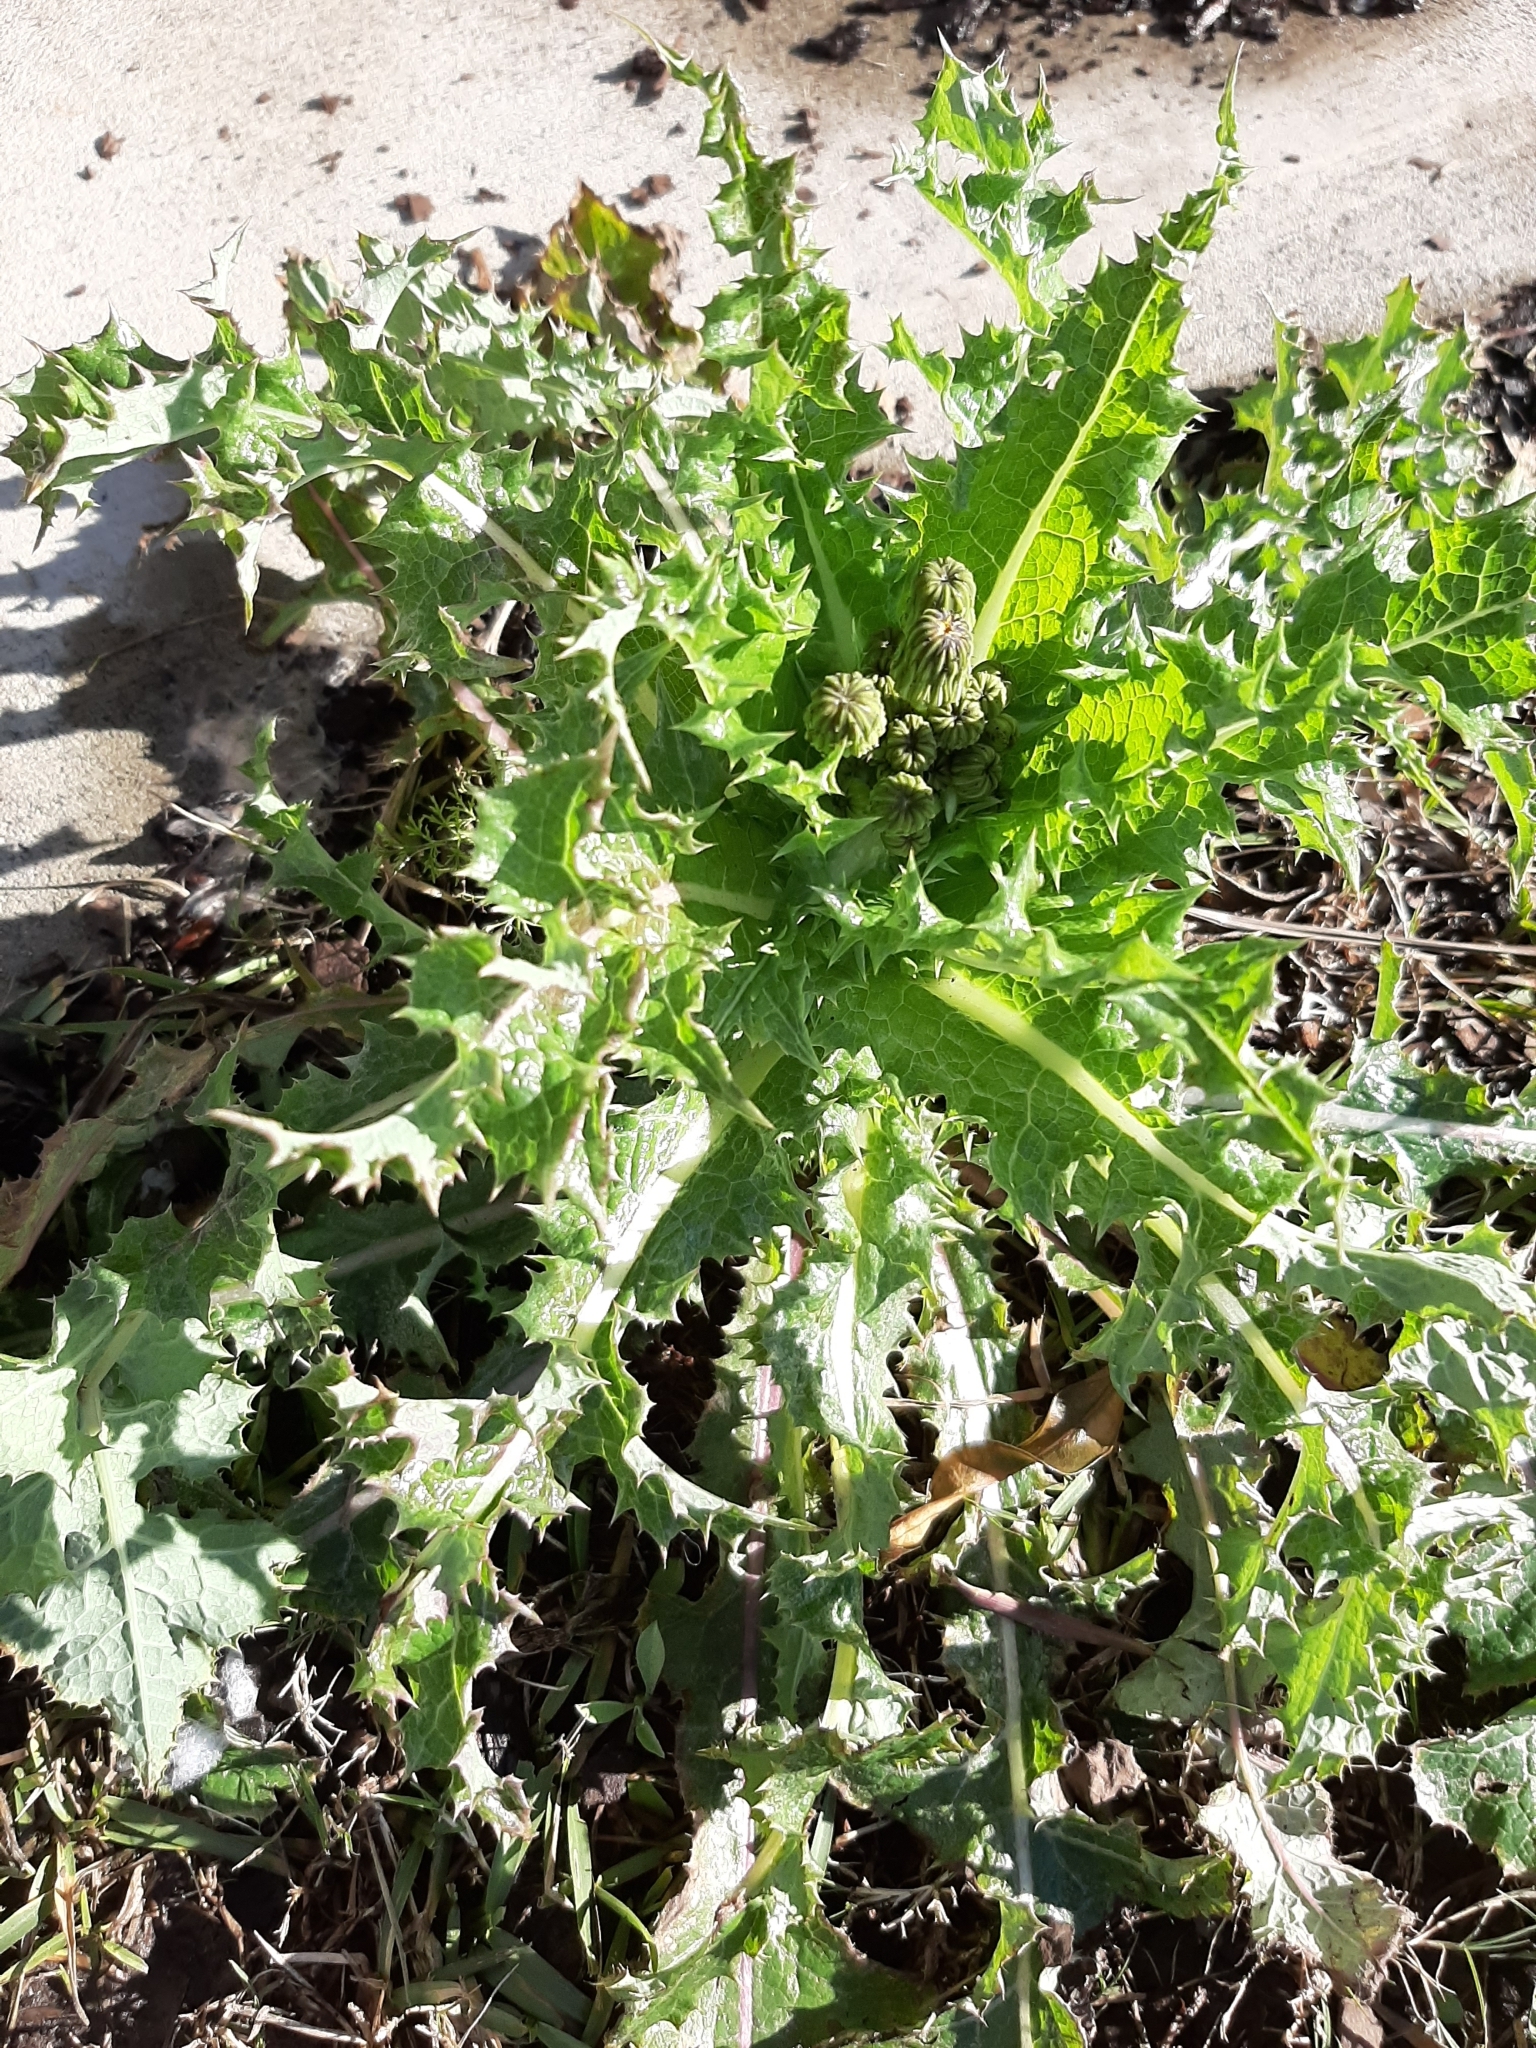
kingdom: Plantae
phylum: Tracheophyta
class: Magnoliopsida
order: Asterales
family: Asteraceae
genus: Sonchus
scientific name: Sonchus asper
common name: Prickly sow-thistle
